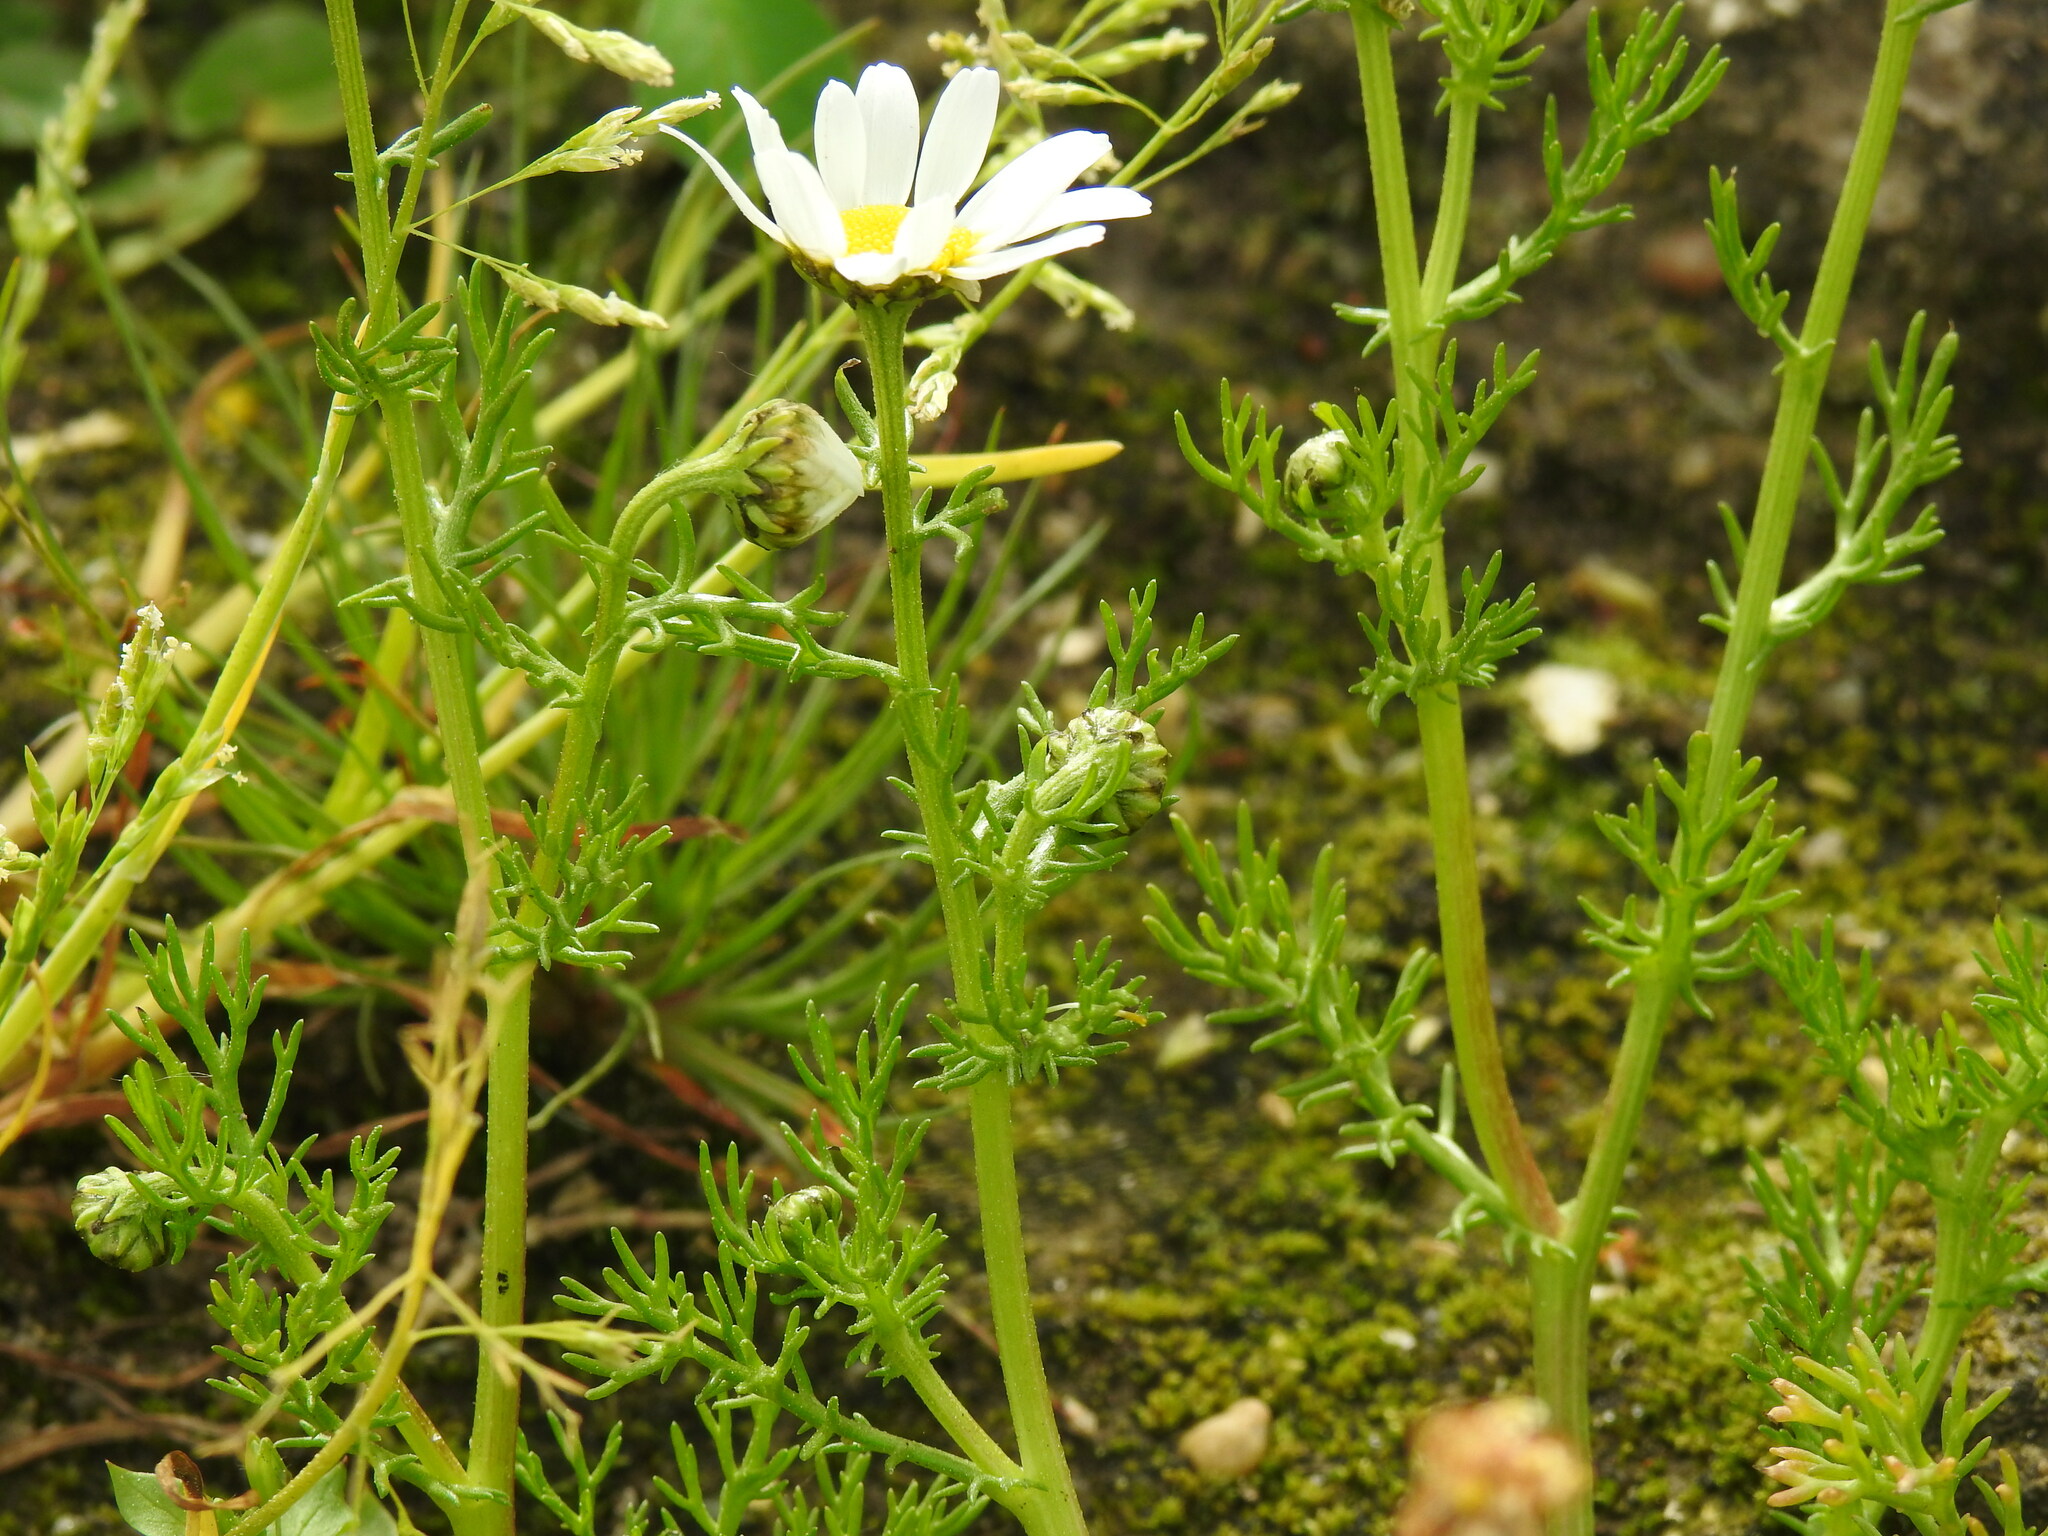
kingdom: Plantae
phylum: Tracheophyta
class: Magnoliopsida
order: Asterales
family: Asteraceae
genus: Chamaemelum
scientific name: Chamaemelum fuscatum
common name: Chamomile
